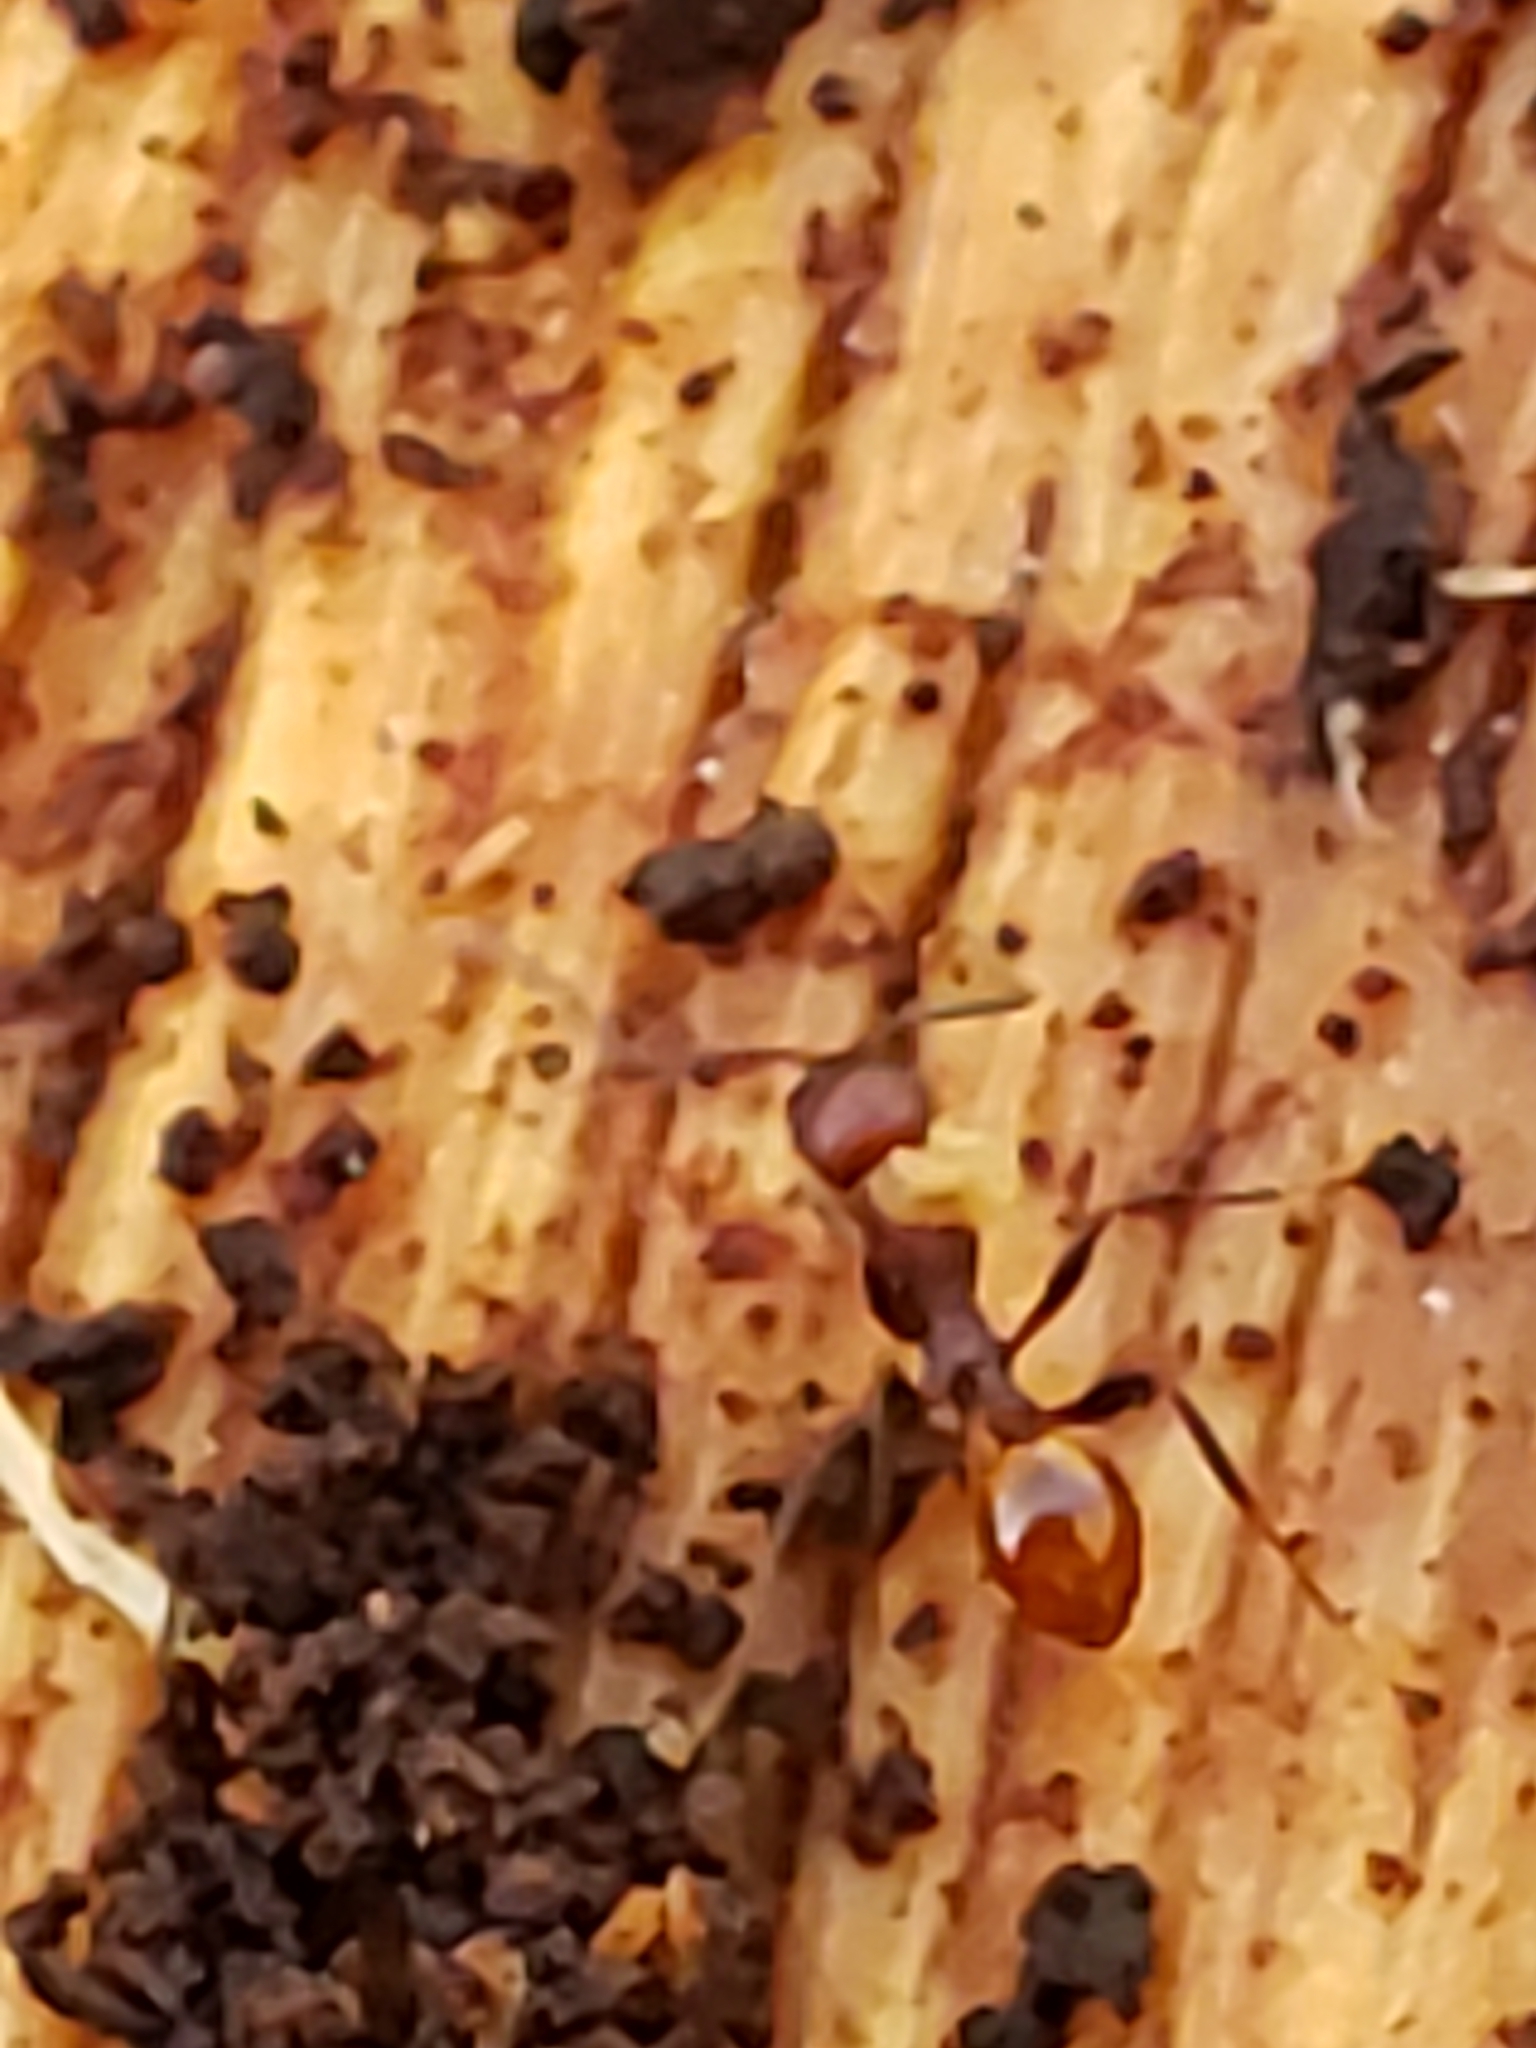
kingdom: Animalia
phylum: Arthropoda
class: Insecta
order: Hymenoptera
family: Formicidae
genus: Aphaenogaster
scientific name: Aphaenogaster tennesseensis
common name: Tennessee thread-waisted ant
